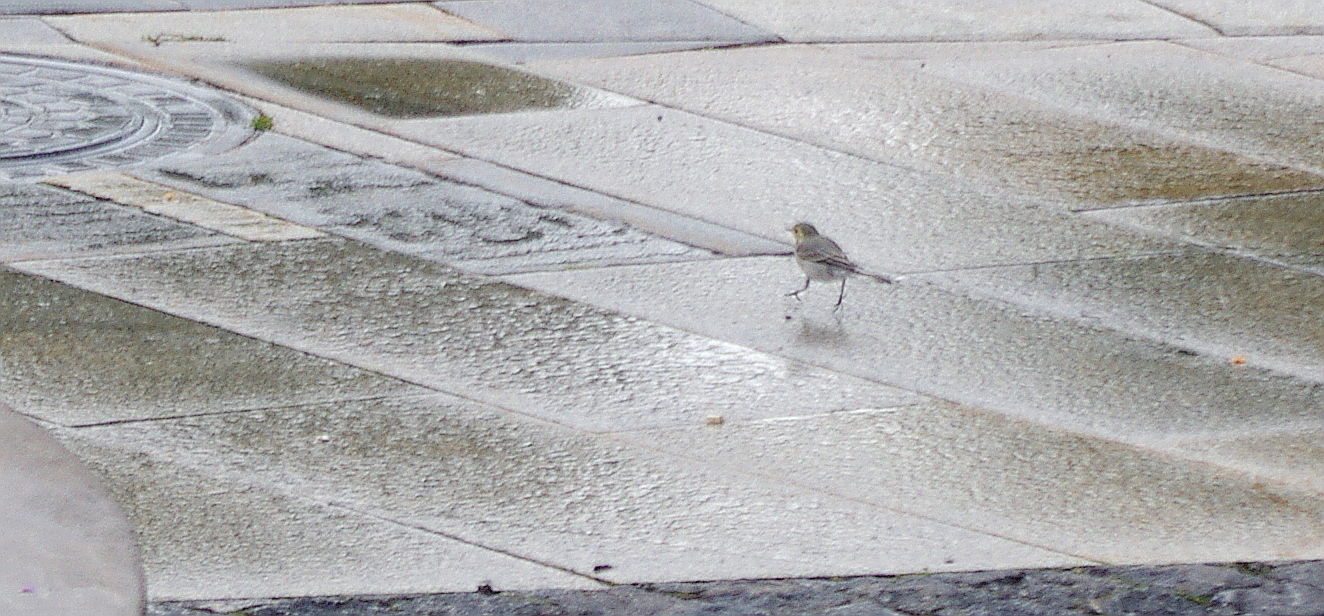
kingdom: Animalia
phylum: Chordata
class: Aves
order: Passeriformes
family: Motacillidae
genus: Motacilla
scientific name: Motacilla alba
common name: White wagtail
